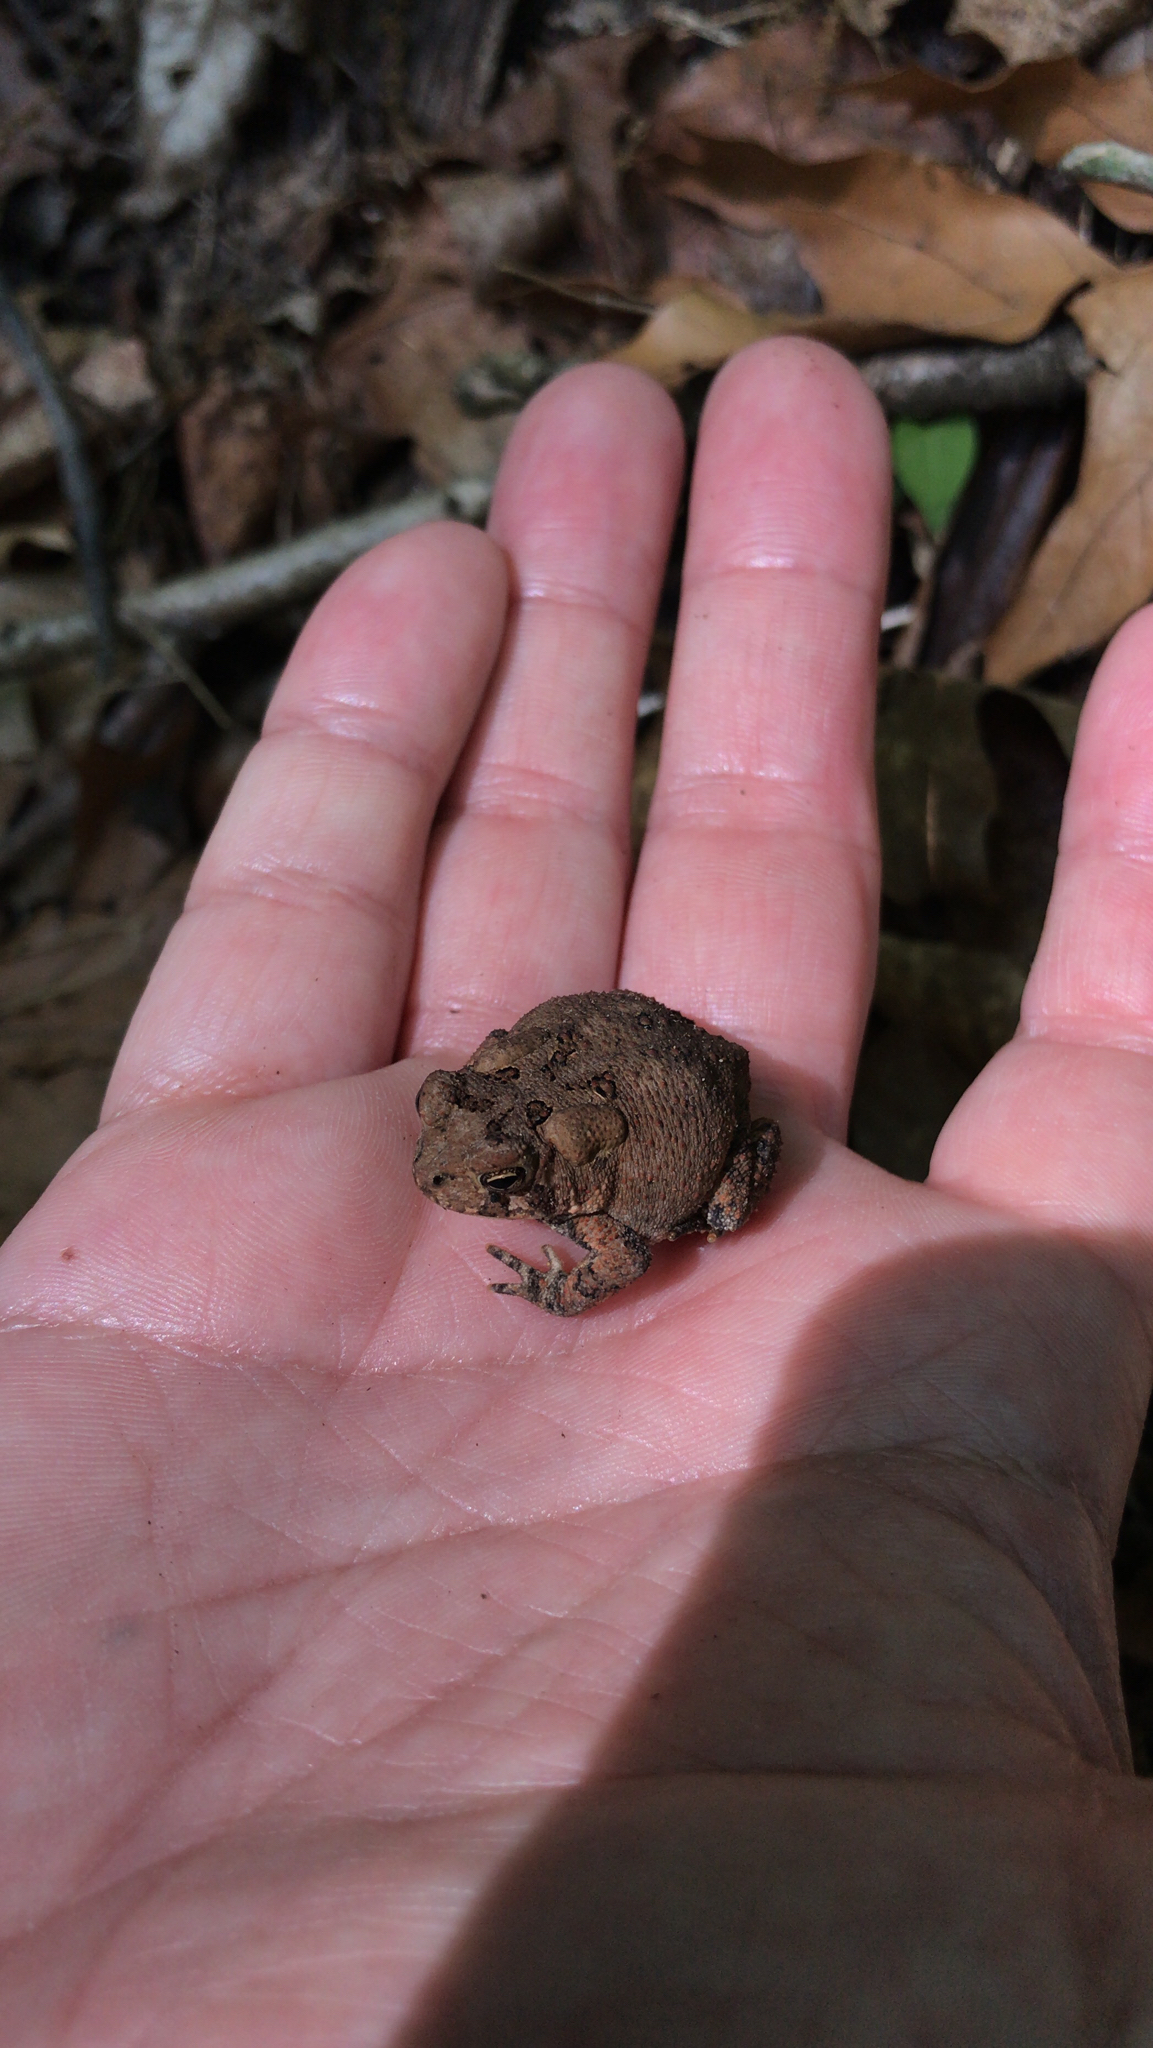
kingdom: Animalia
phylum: Chordata
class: Amphibia
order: Anura
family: Bufonidae
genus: Anaxyrus
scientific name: Anaxyrus americanus
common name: American toad
